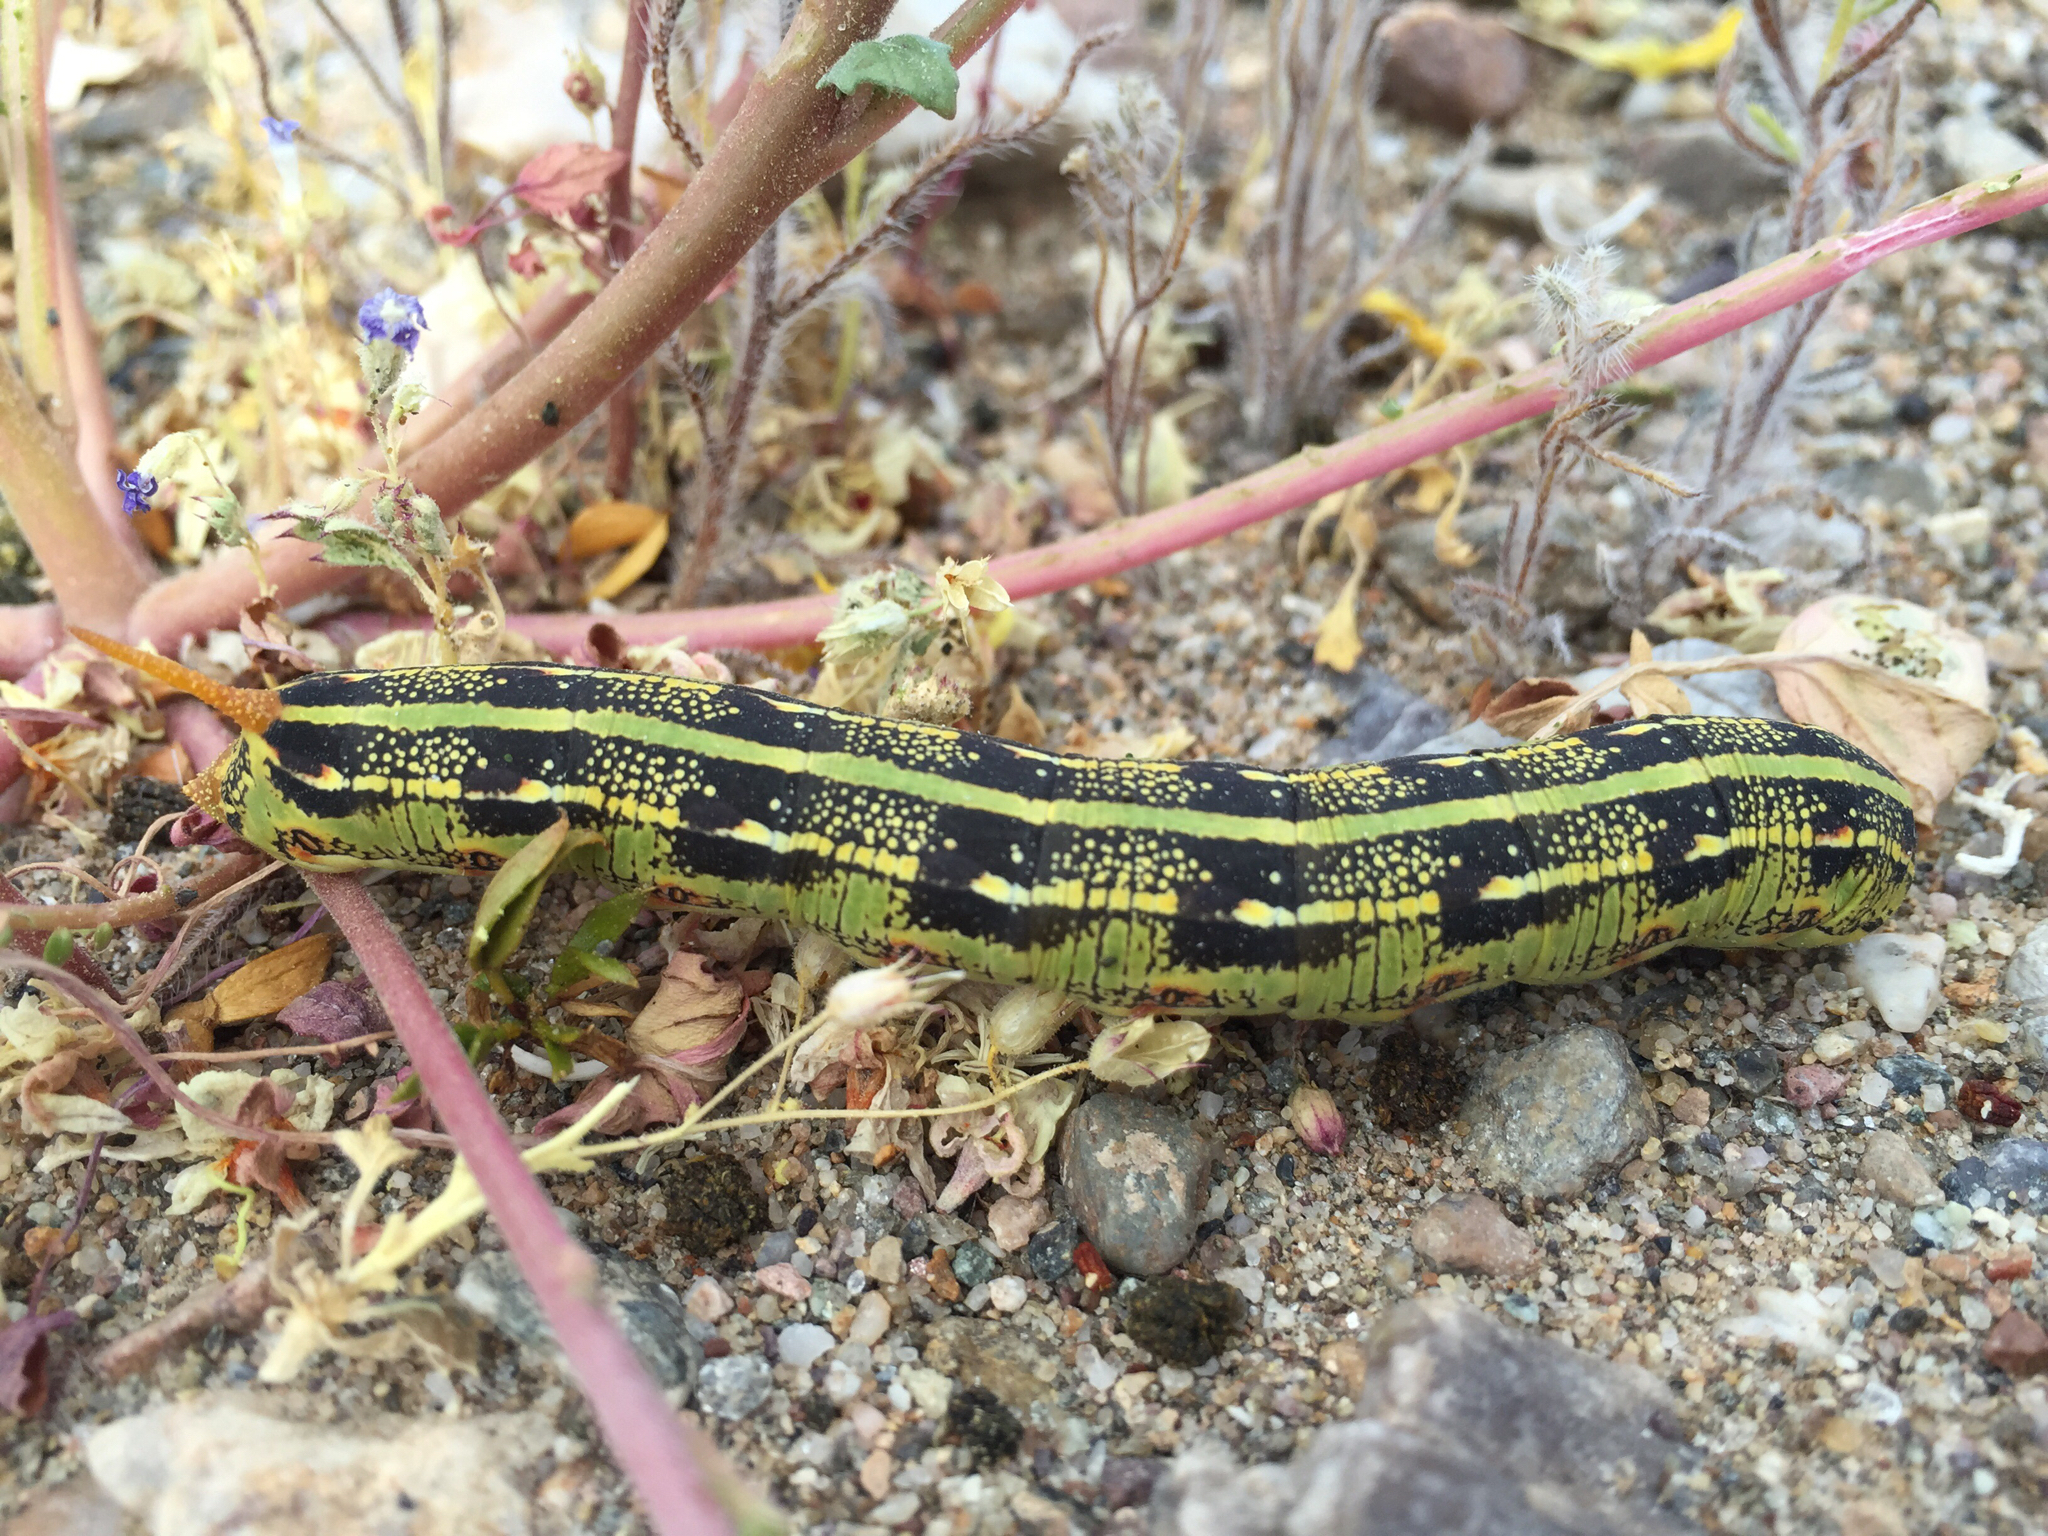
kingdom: Animalia
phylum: Arthropoda
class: Insecta
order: Lepidoptera
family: Sphingidae
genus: Hyles
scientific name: Hyles lineata
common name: White-lined sphinx
